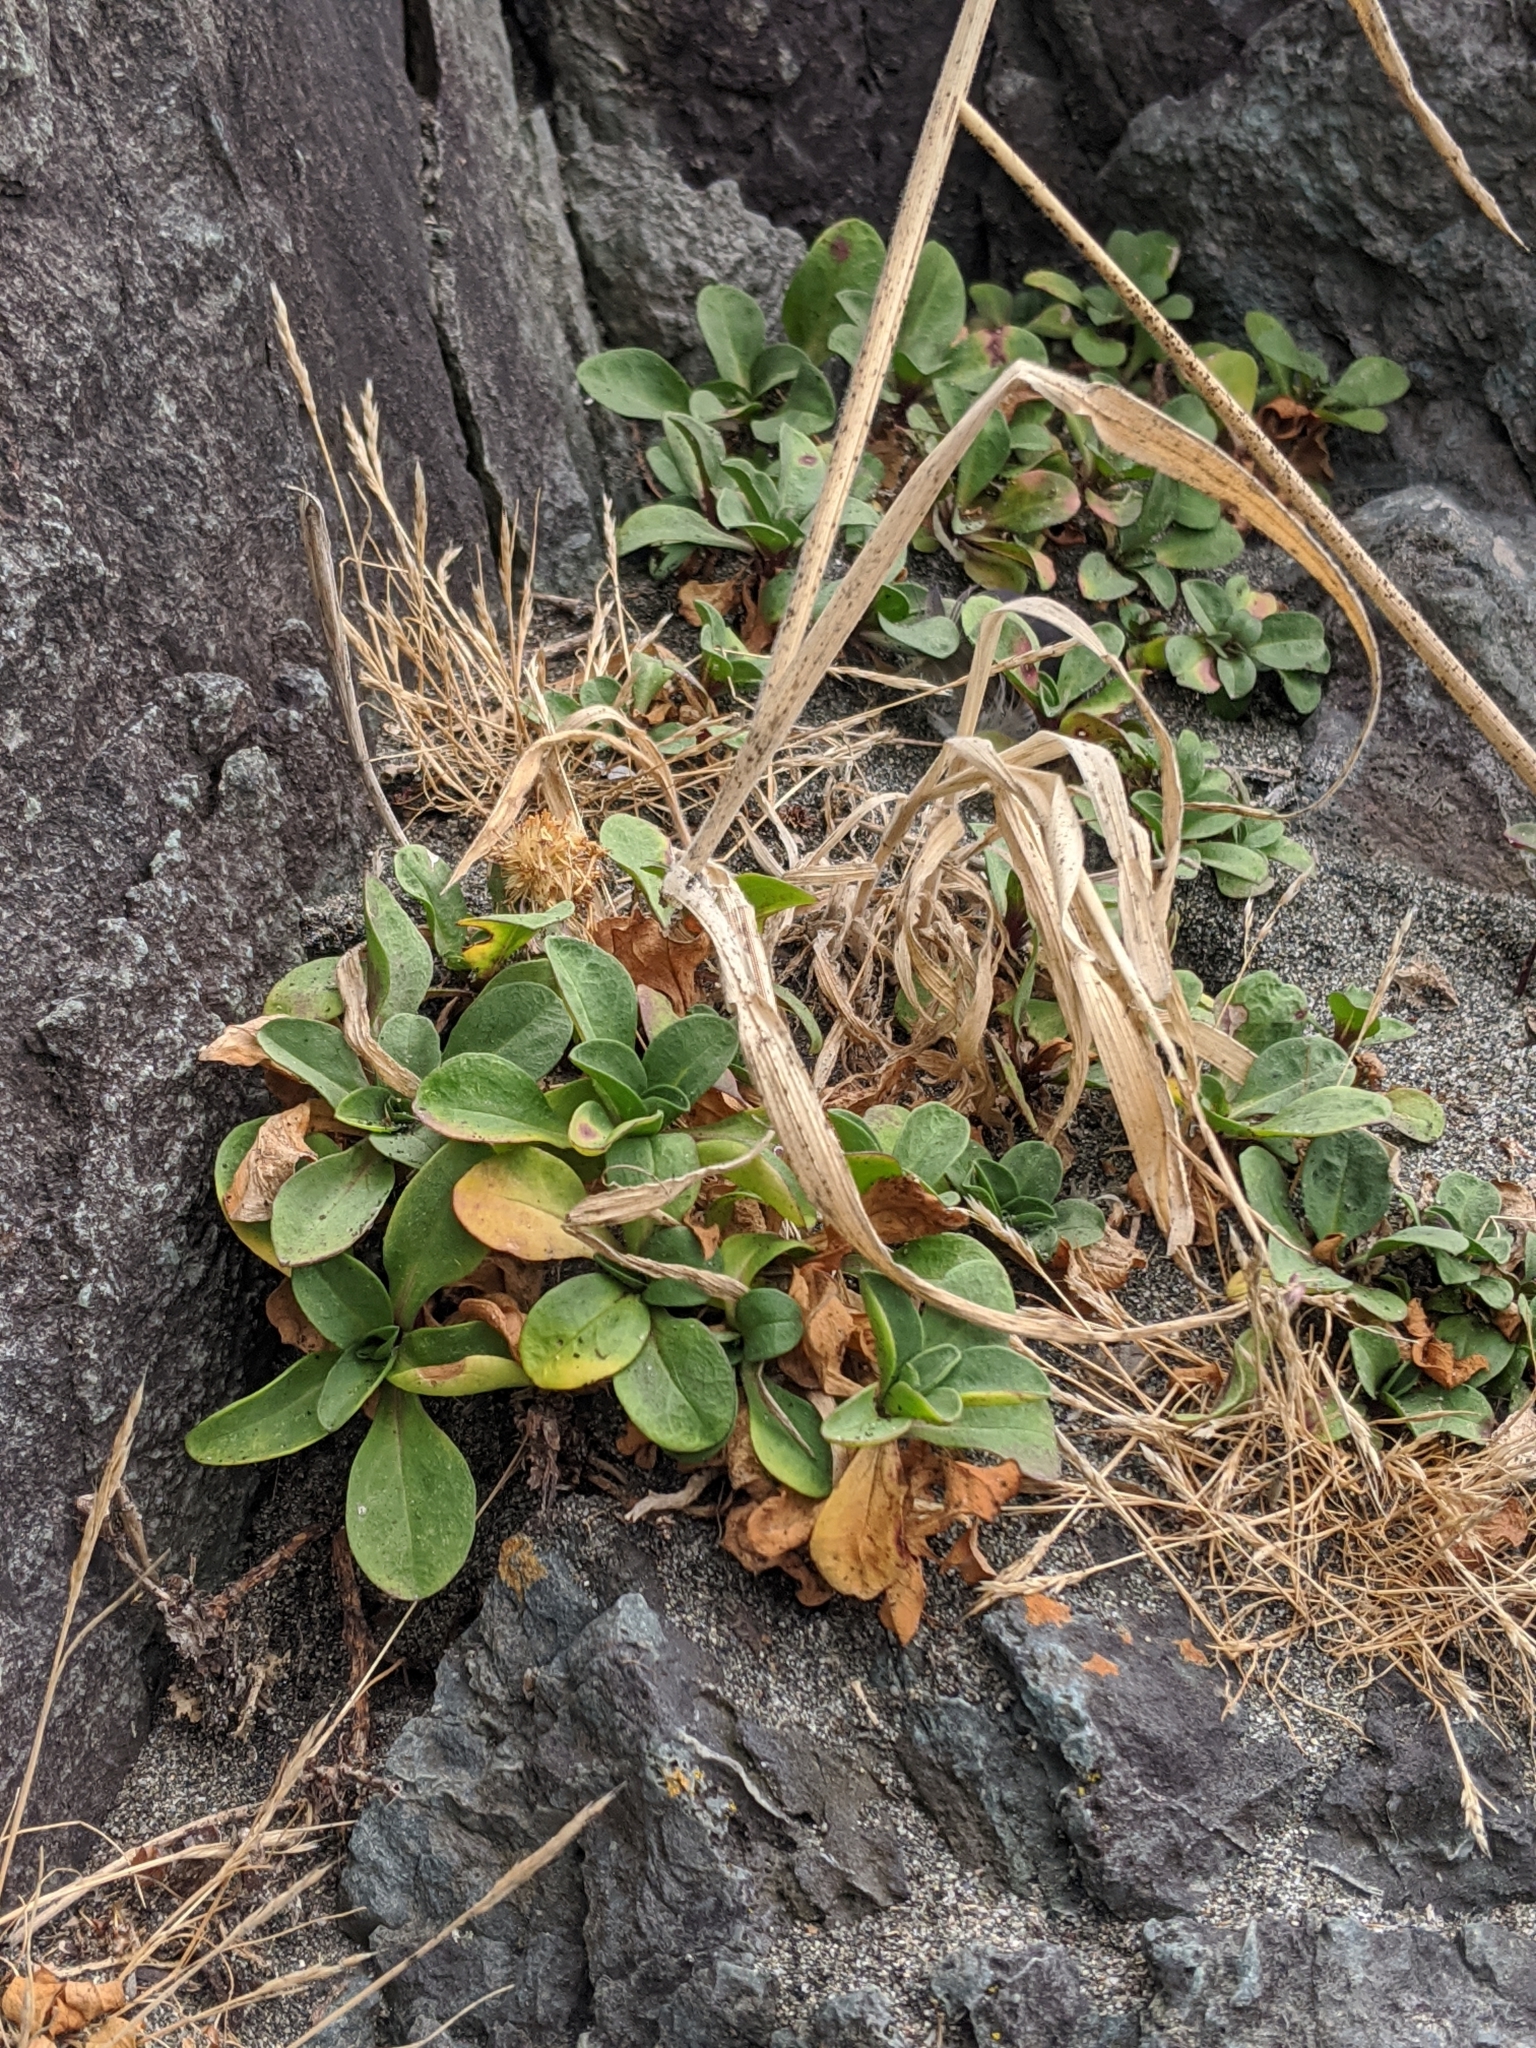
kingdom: Plantae
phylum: Tracheophyta
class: Magnoliopsida
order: Asterales
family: Asteraceae
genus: Erigeron
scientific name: Erigeron glaucus
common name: Seaside daisy
